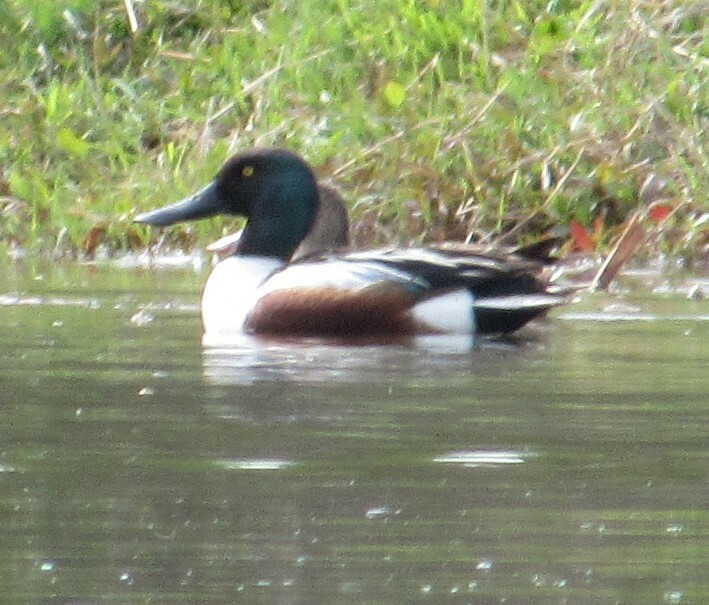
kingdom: Animalia
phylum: Chordata
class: Aves
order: Anseriformes
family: Anatidae
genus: Spatula
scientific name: Spatula clypeata
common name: Northern shoveler
